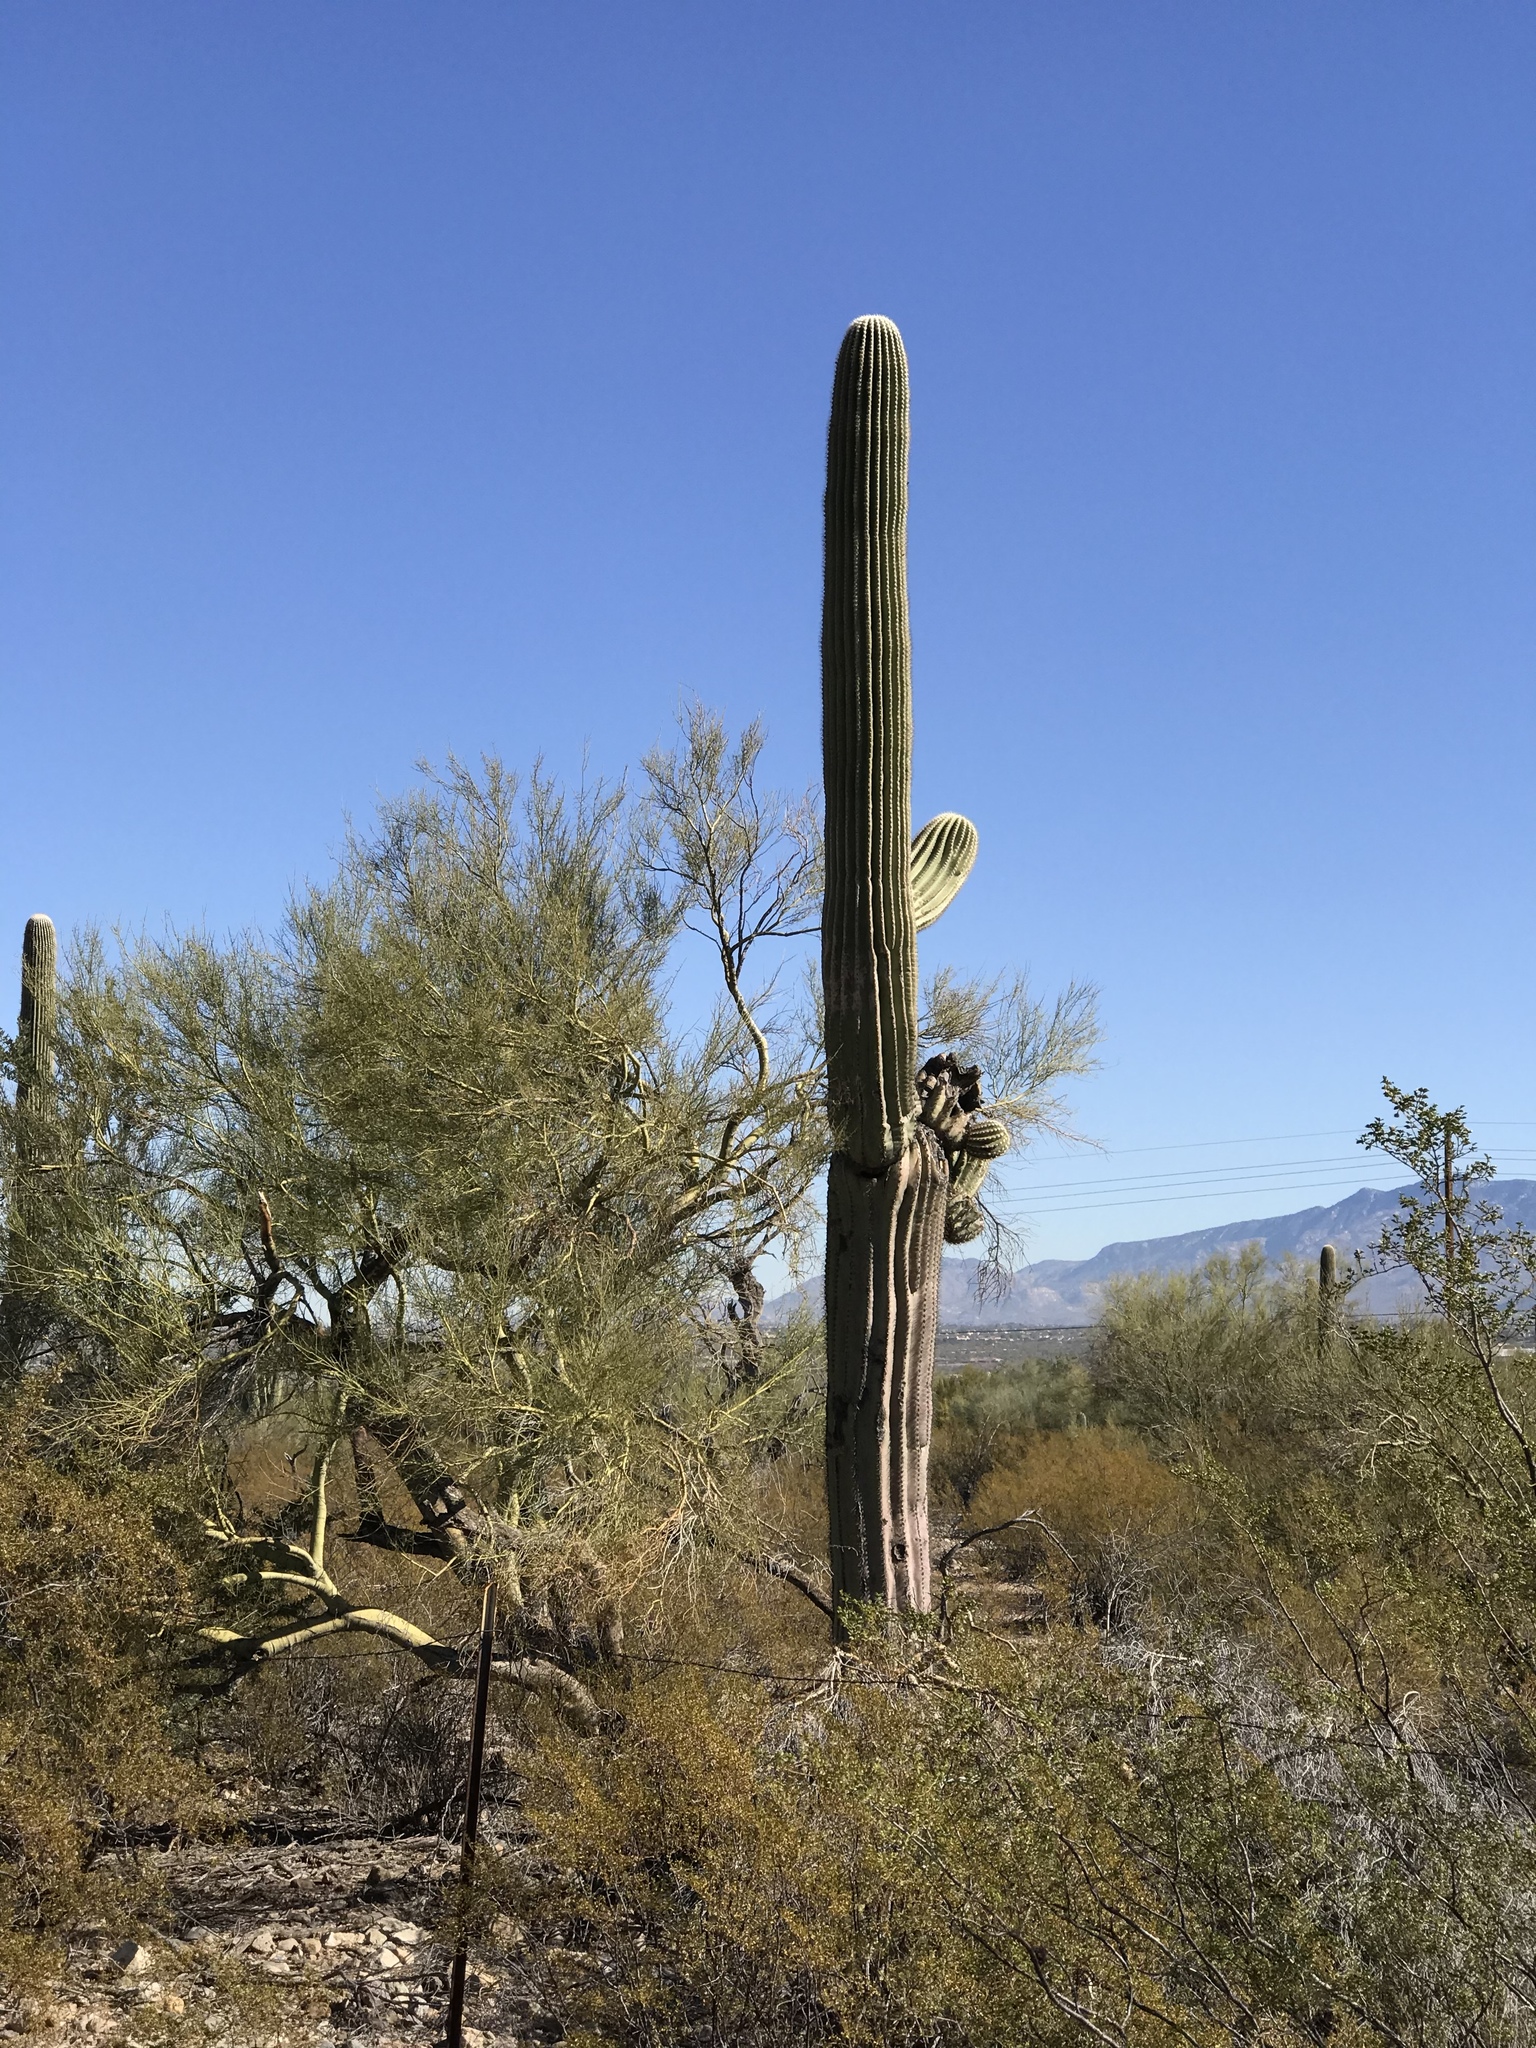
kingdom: Plantae
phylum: Tracheophyta
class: Magnoliopsida
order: Caryophyllales
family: Cactaceae
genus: Carnegiea
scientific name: Carnegiea gigantea
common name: Saguaro
